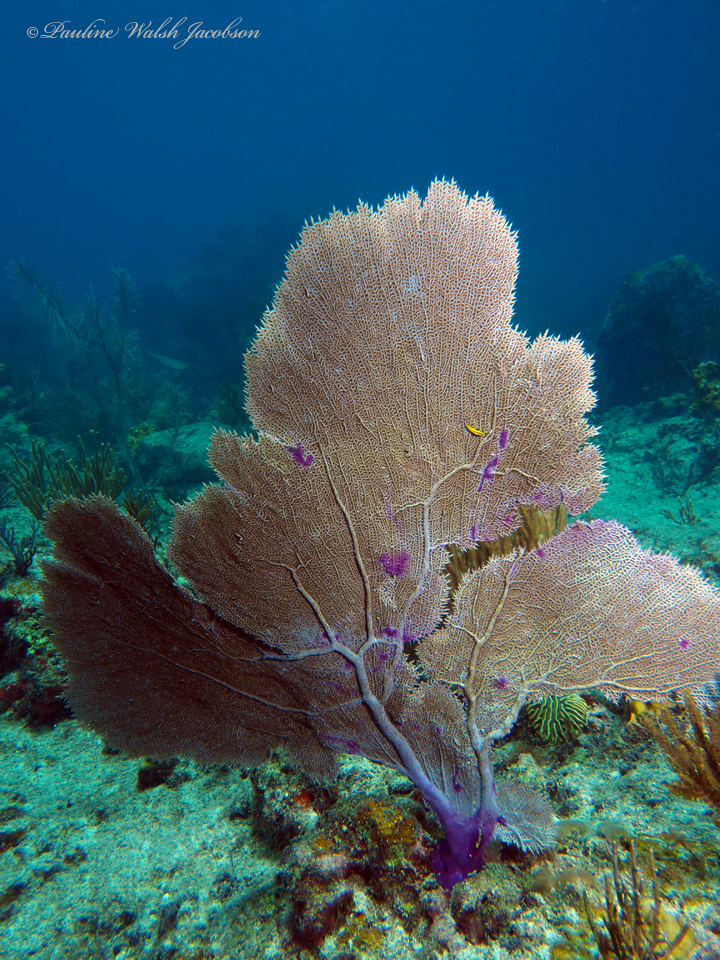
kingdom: Animalia
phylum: Cnidaria
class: Anthozoa
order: Malacalcyonacea
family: Gorgoniidae
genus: Gorgonia
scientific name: Gorgonia ventalina
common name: Common sea fan
